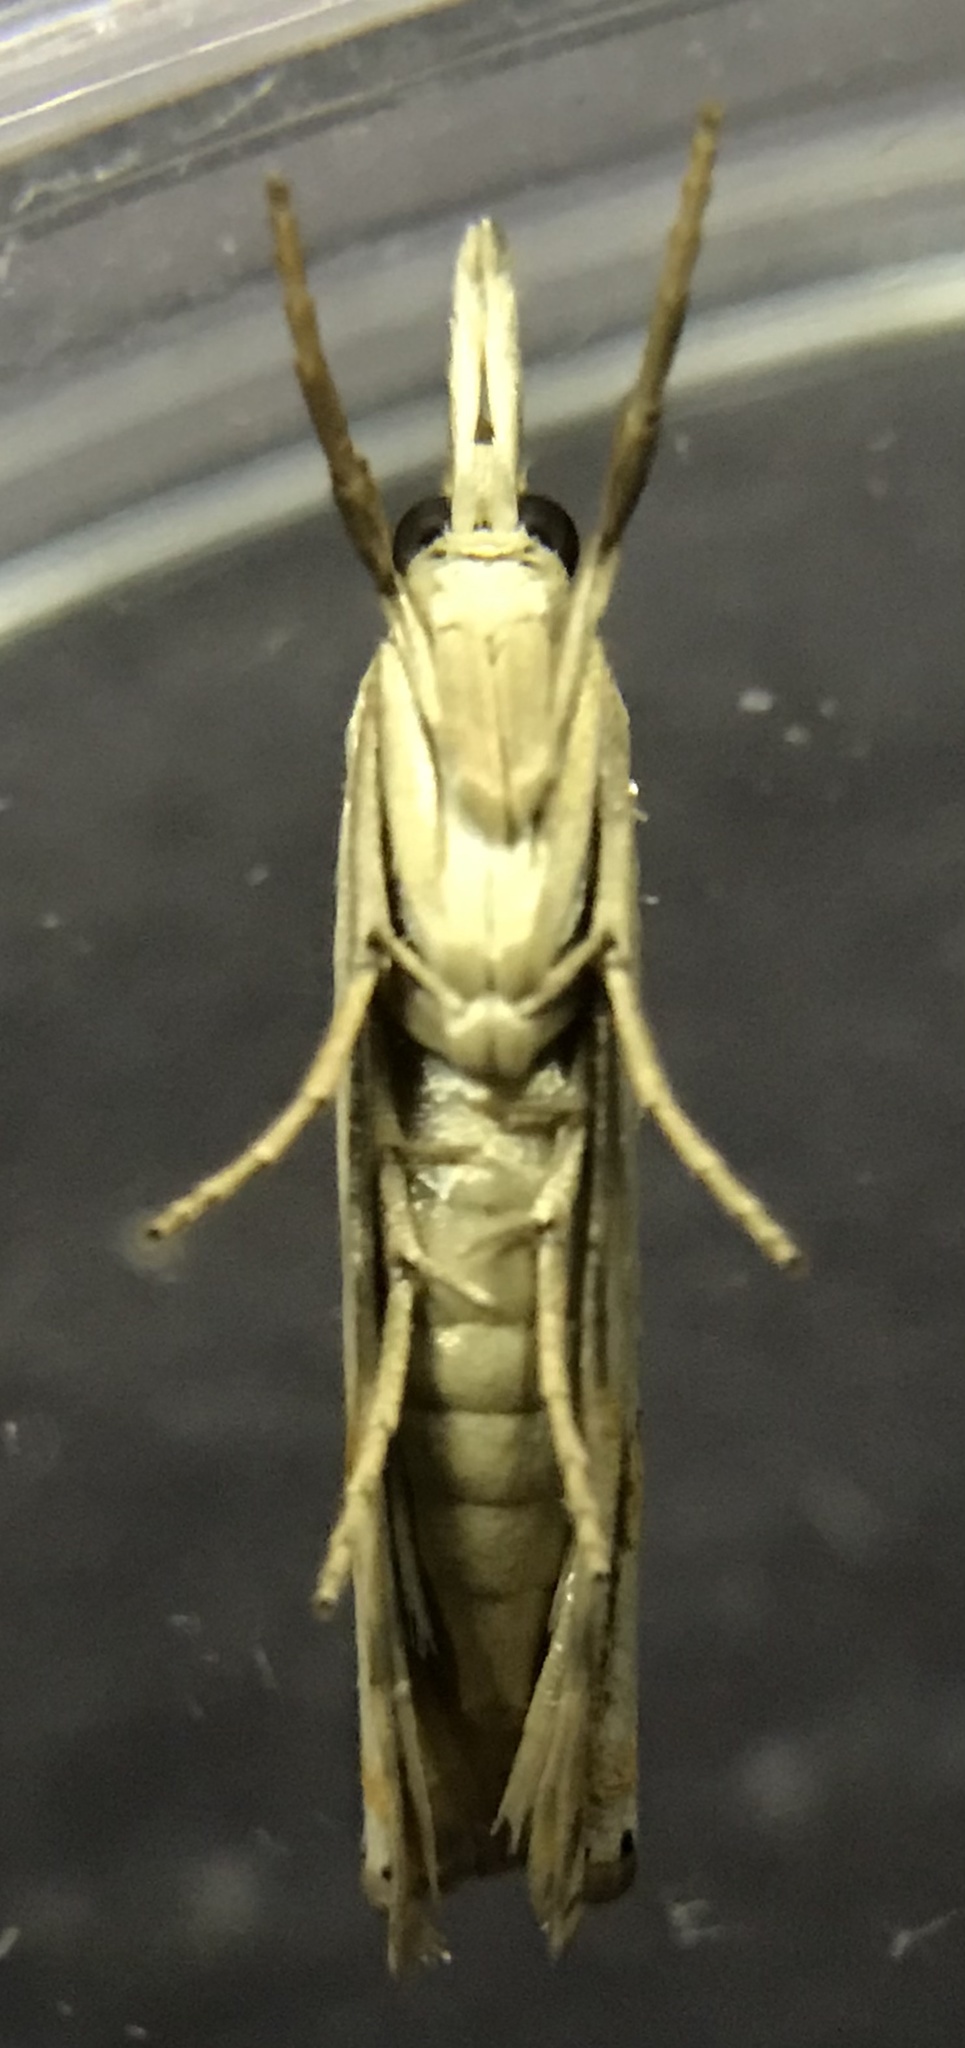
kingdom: Animalia
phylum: Arthropoda
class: Insecta
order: Lepidoptera
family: Crambidae
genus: Crambus
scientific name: Crambus agitatellus
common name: Double-banded grass-veneer
